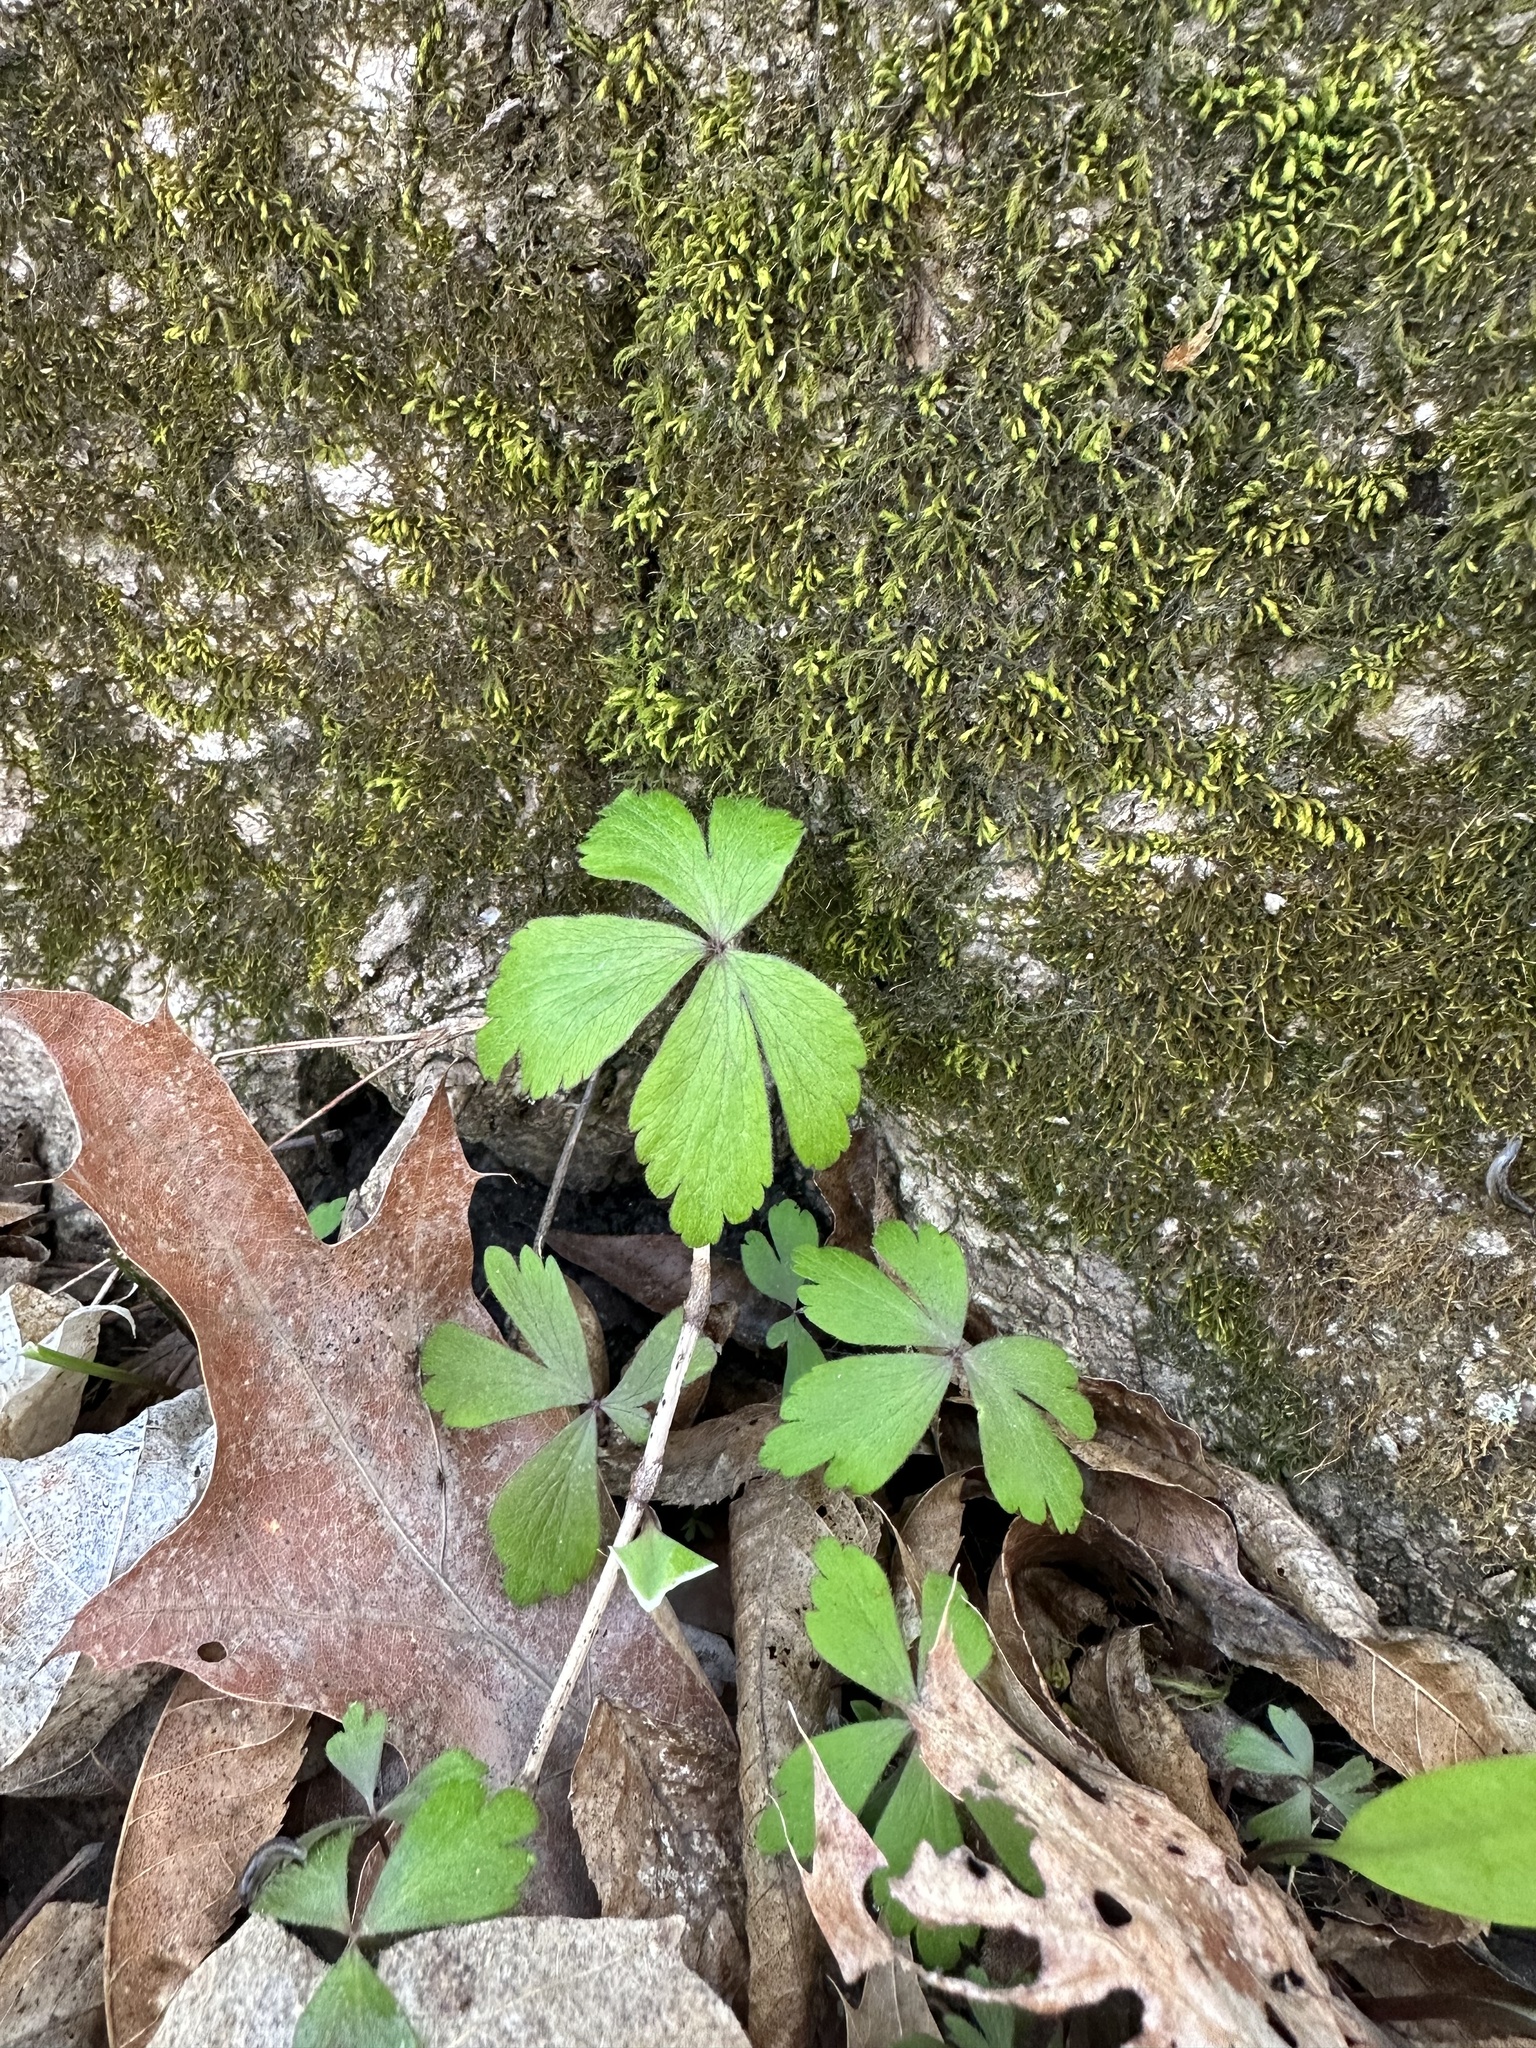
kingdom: Plantae
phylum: Tracheophyta
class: Magnoliopsida
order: Ranunculales
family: Ranunculaceae
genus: Anemone
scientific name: Anemone quinquefolia
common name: Wood anemone
